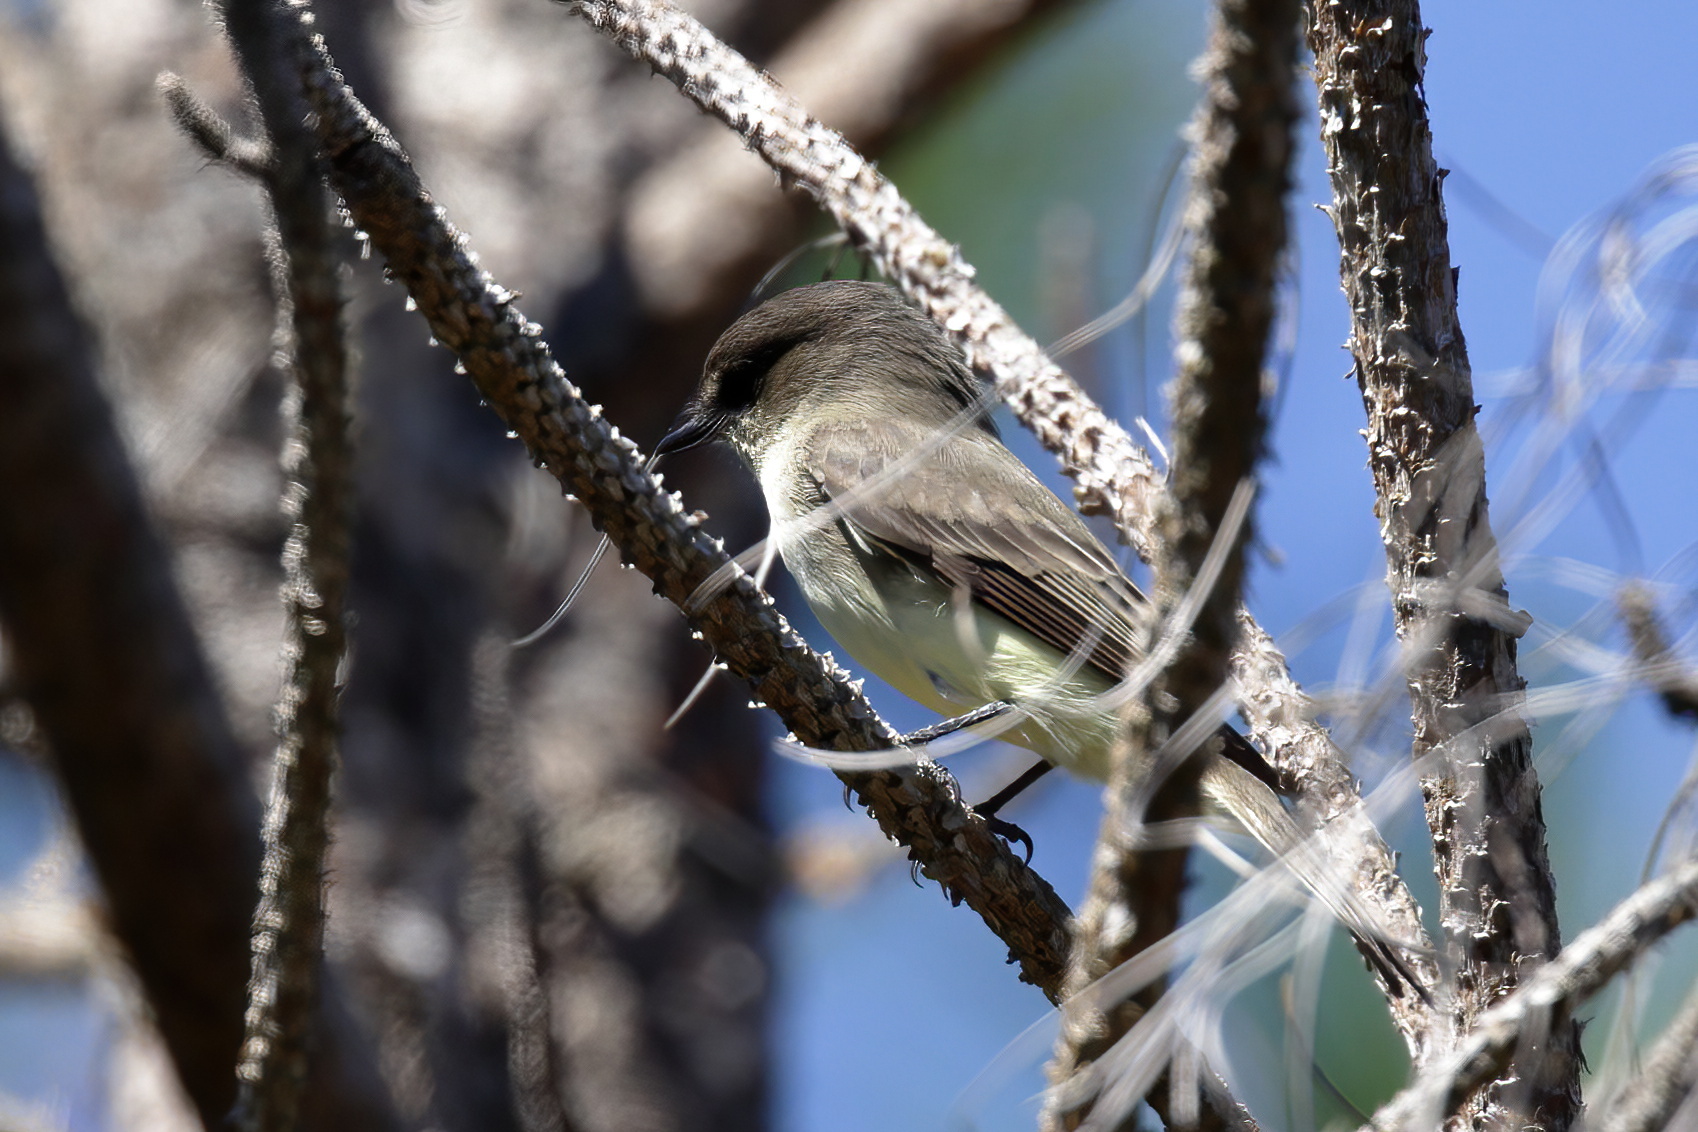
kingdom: Animalia
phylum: Chordata
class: Aves
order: Passeriformes
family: Tyrannidae
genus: Sayornis
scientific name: Sayornis phoebe
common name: Eastern phoebe
